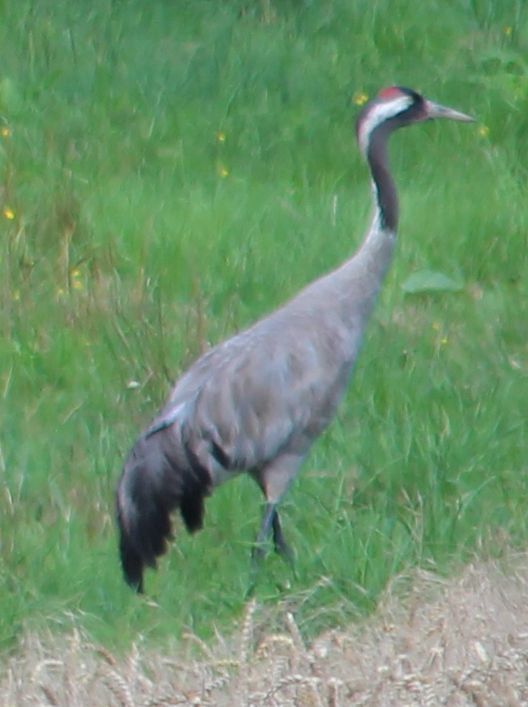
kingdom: Animalia
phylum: Chordata
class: Aves
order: Gruiformes
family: Gruidae
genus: Grus
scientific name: Grus grus
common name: Common crane
